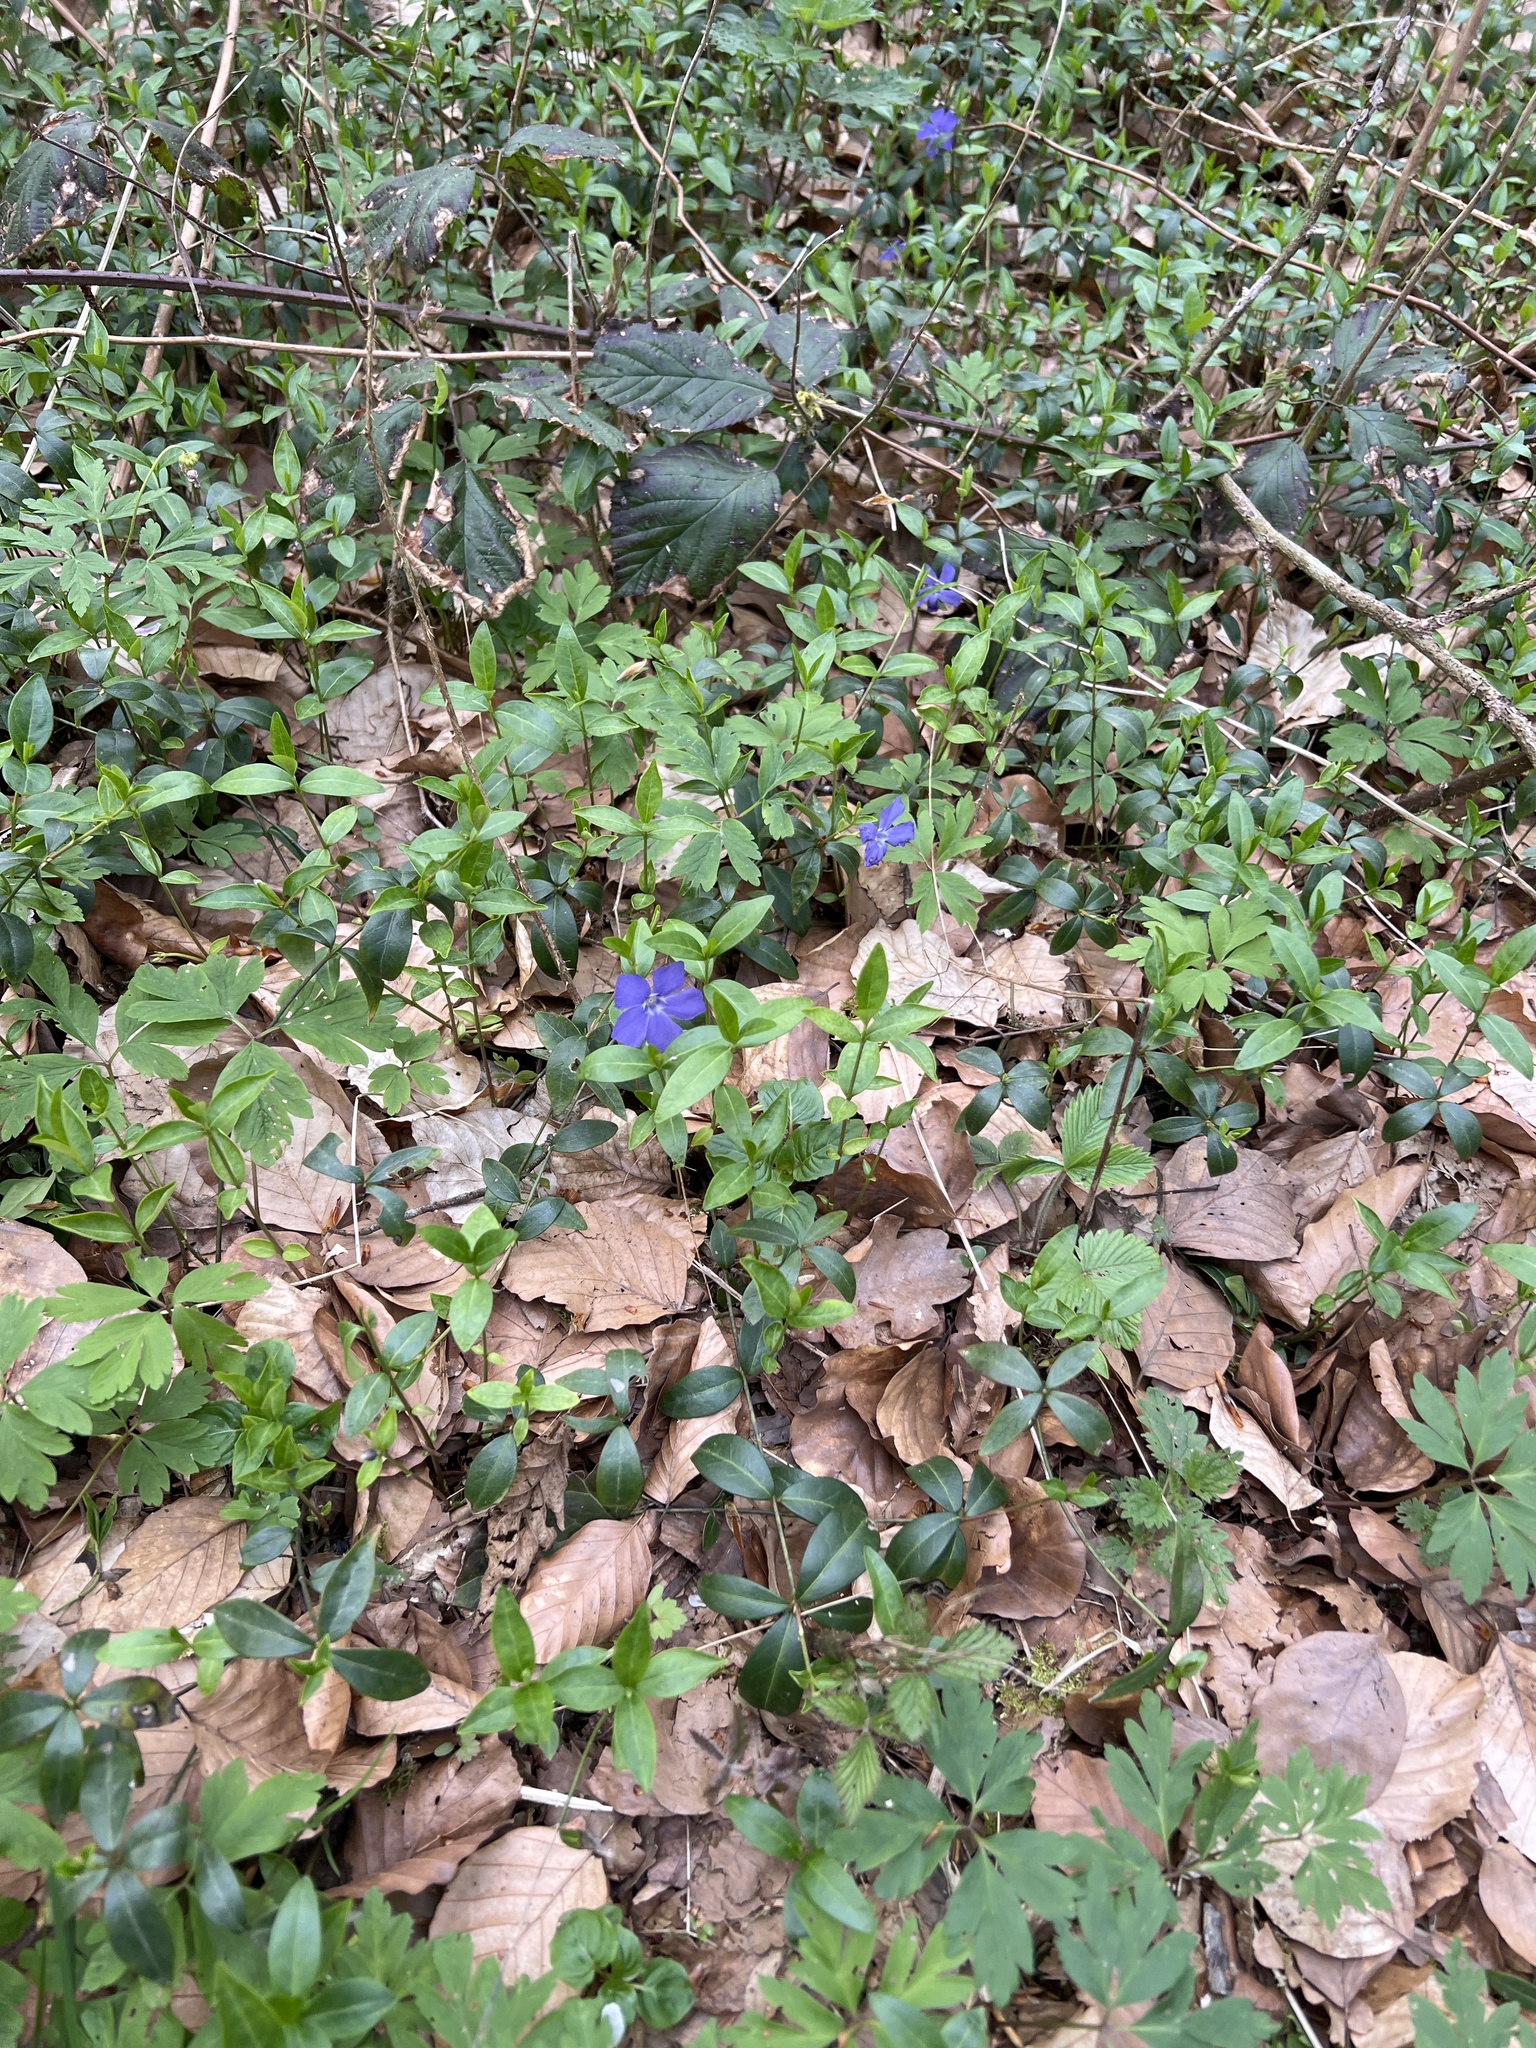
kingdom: Plantae
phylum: Tracheophyta
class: Magnoliopsida
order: Gentianales
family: Apocynaceae
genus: Vinca
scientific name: Vinca minor
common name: Lesser periwinkle
